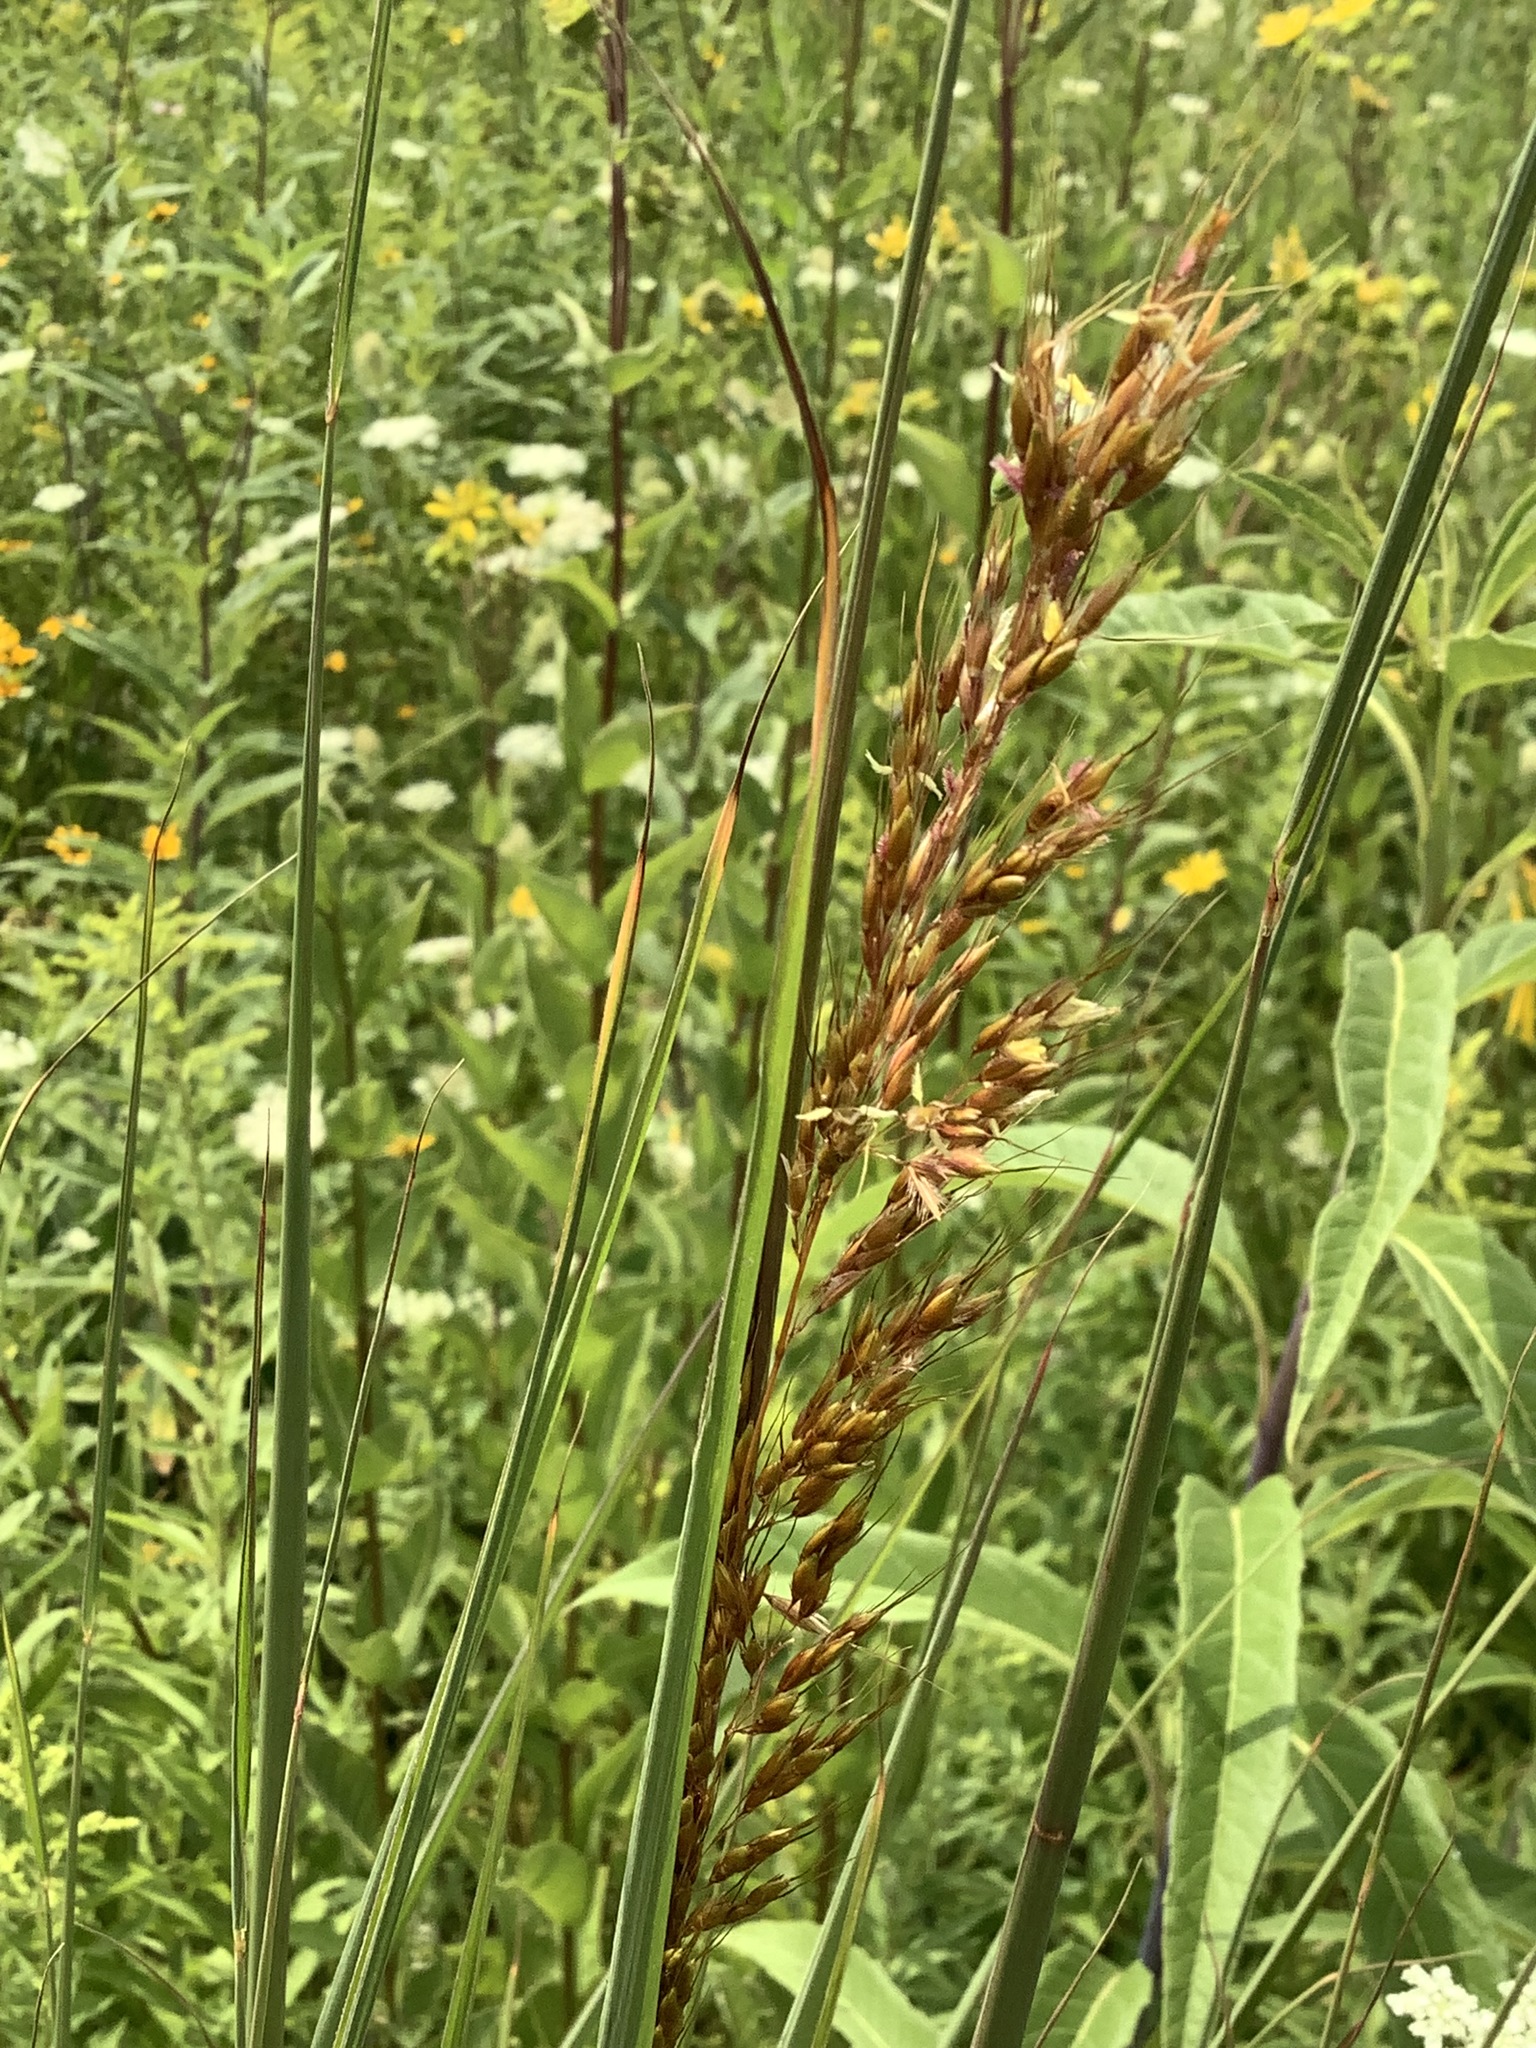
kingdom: Plantae
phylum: Tracheophyta
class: Liliopsida
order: Poales
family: Poaceae
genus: Sorghastrum
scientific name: Sorghastrum nutans
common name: Indian grass
